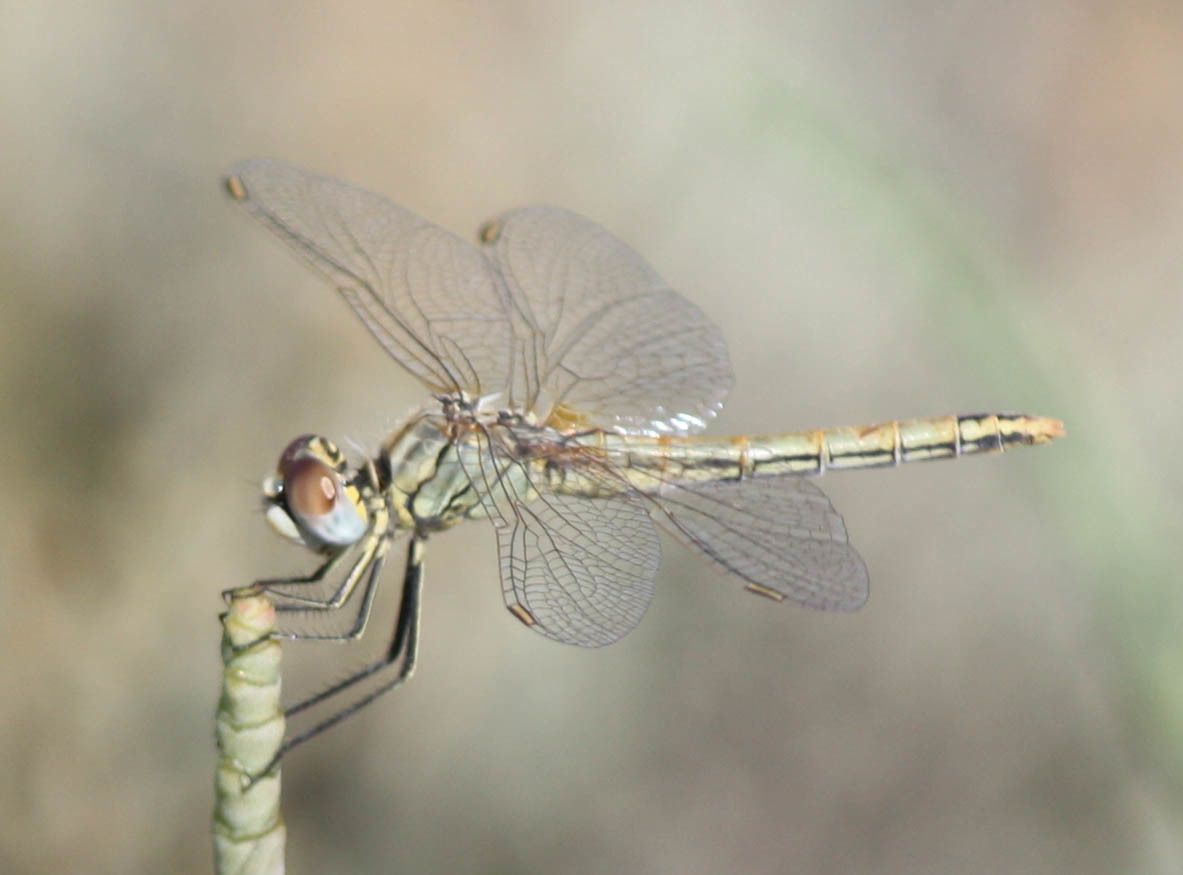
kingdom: Animalia
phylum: Arthropoda
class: Insecta
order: Odonata
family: Libellulidae
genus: Sympetrum
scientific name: Sympetrum fonscolombii
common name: Red-veined darter
